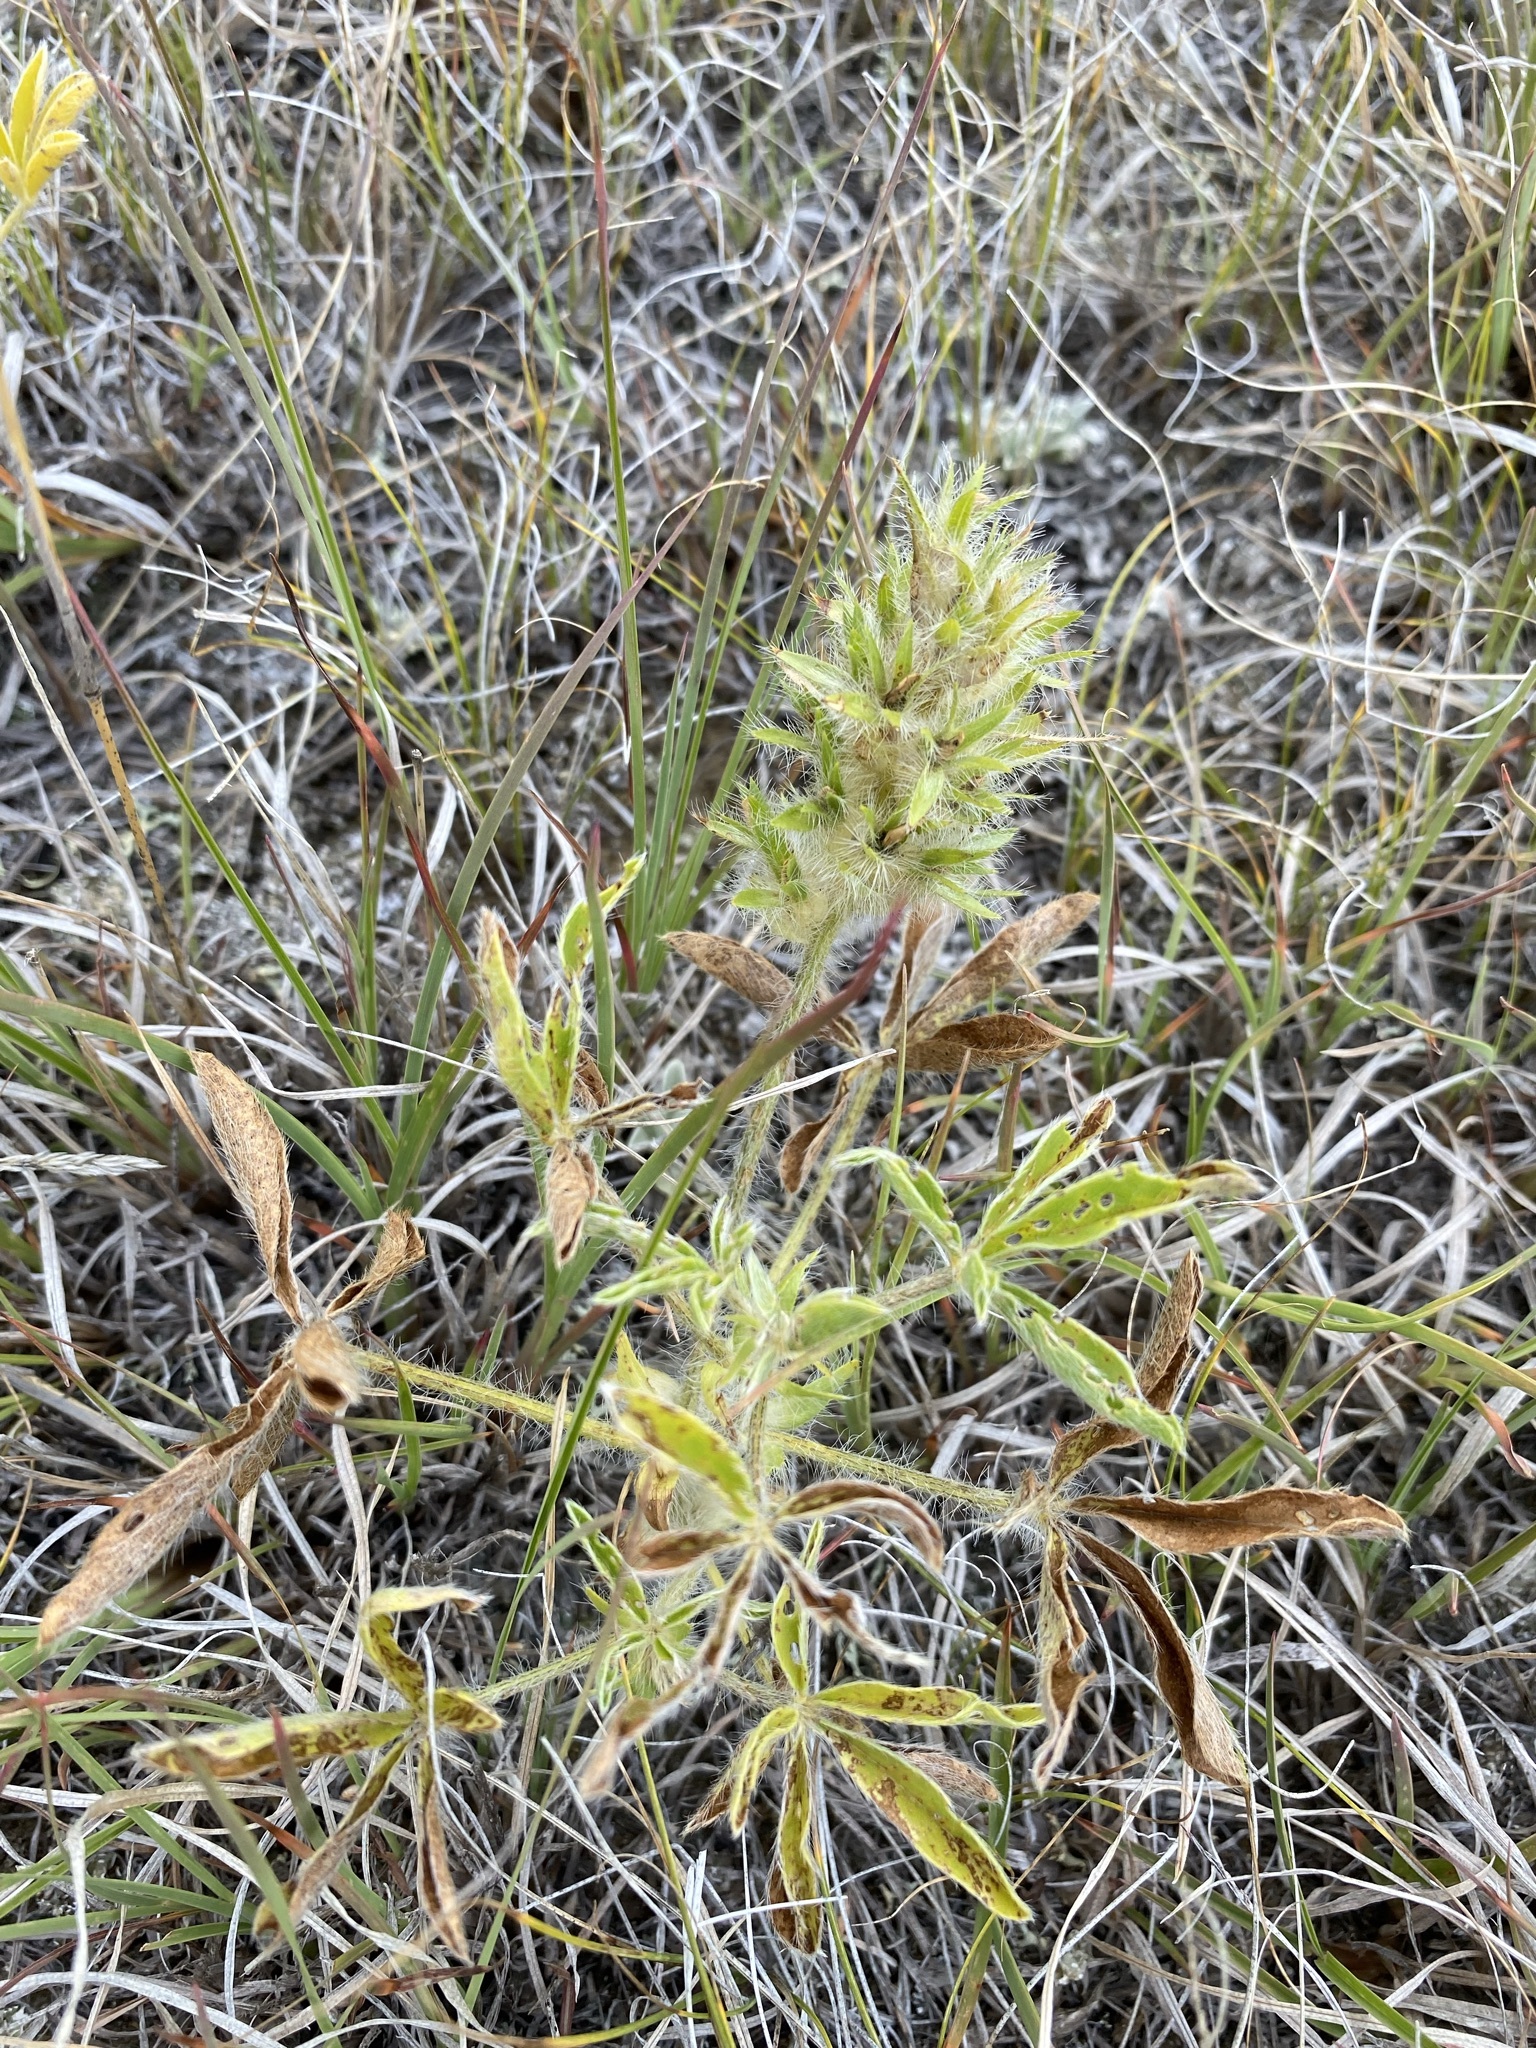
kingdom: Plantae
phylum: Tracheophyta
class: Magnoliopsida
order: Fabales
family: Fabaceae
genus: Pediomelum
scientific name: Pediomelum esculentum
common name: Indian-turnip
